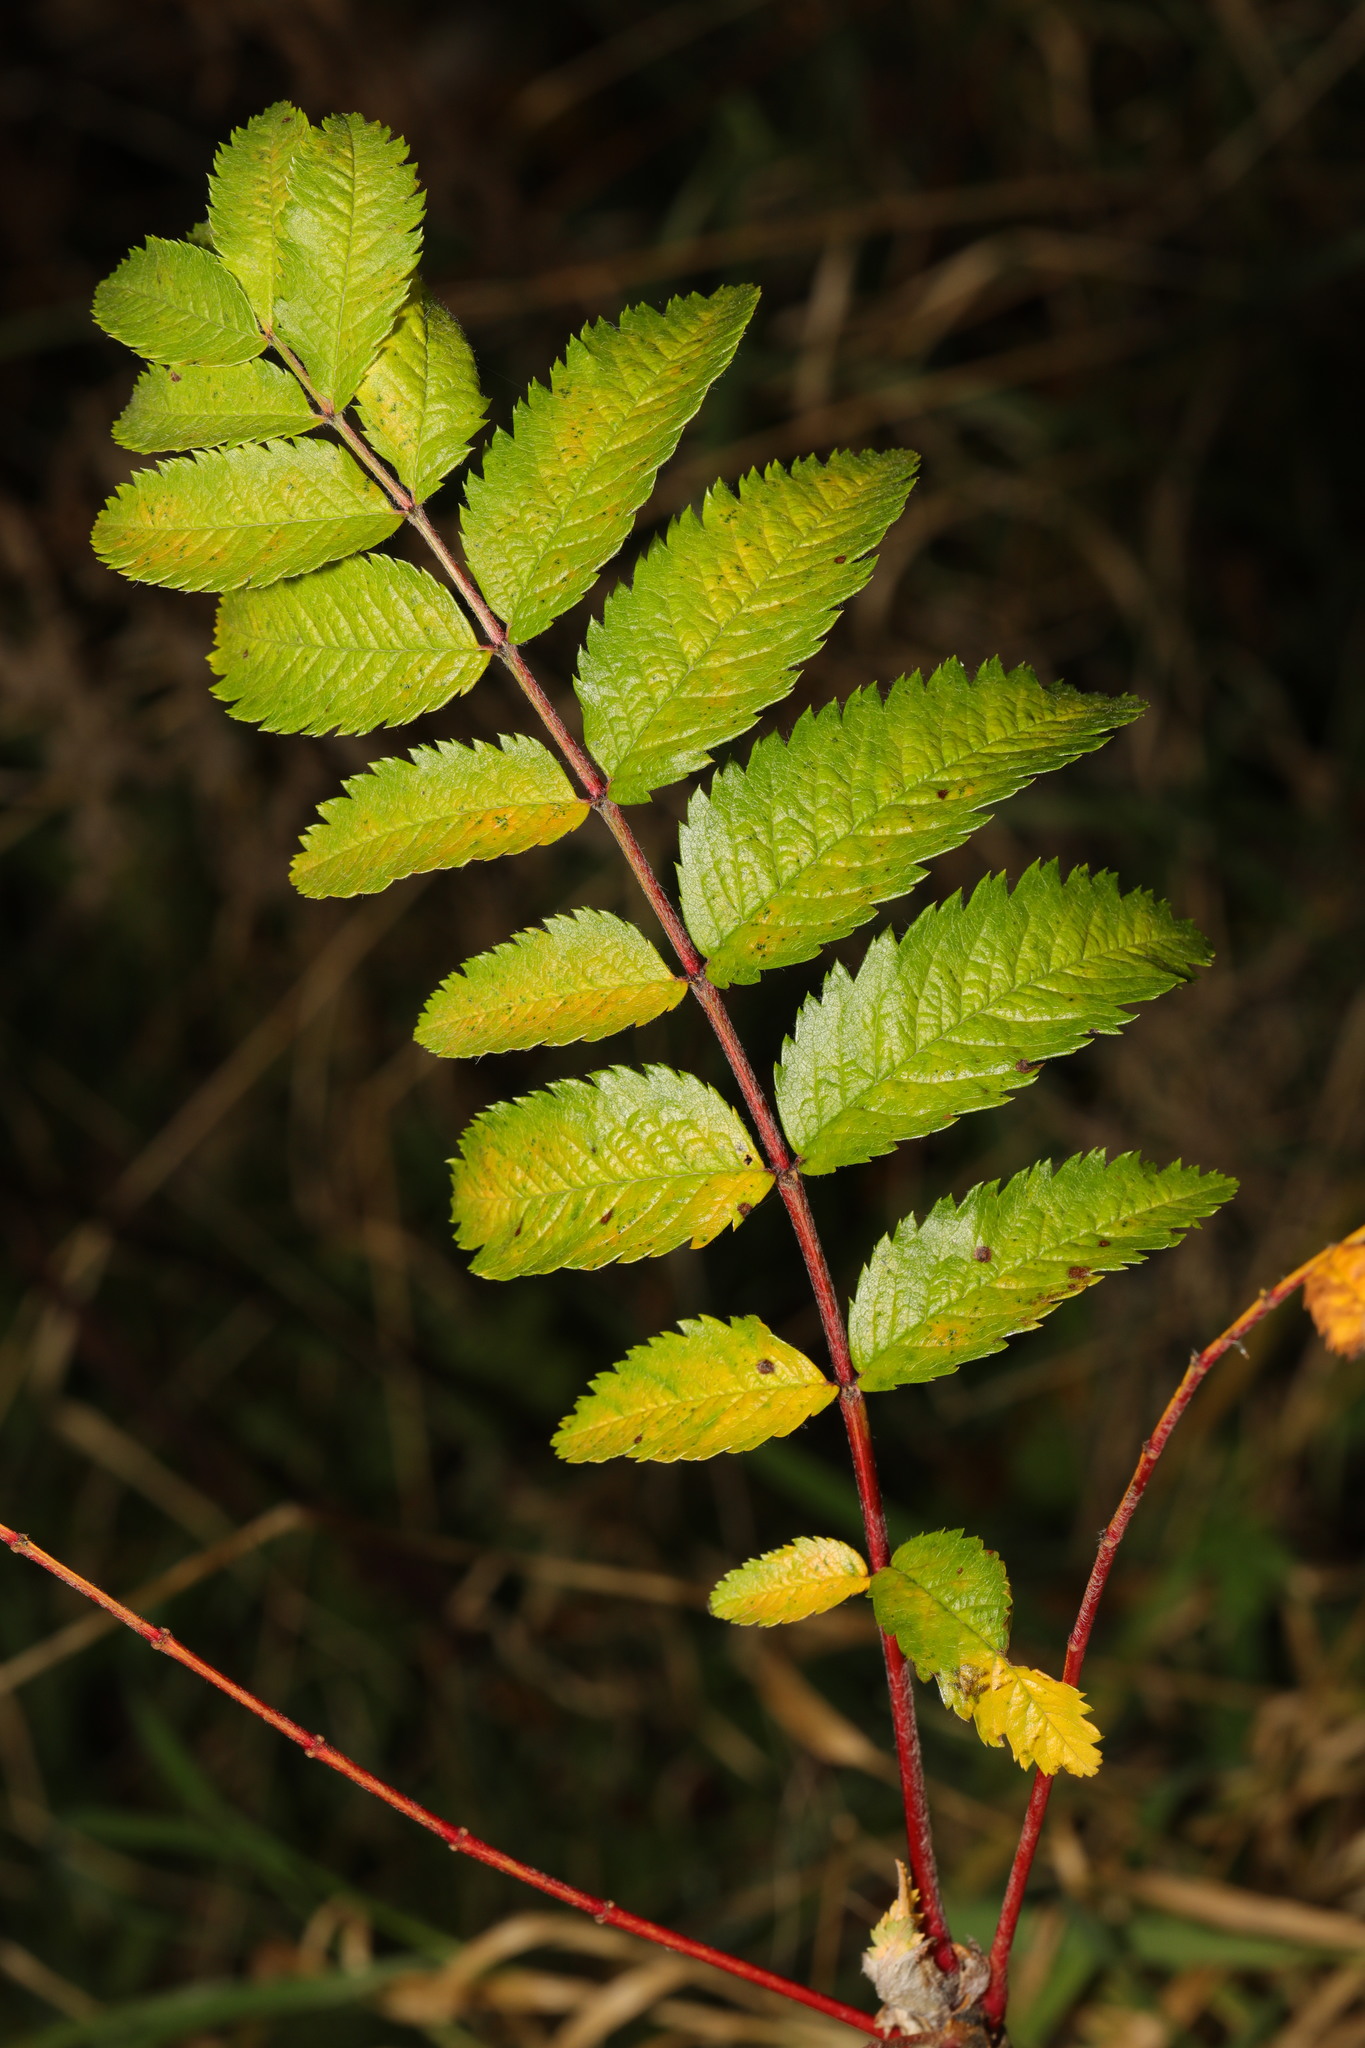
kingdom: Plantae
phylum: Tracheophyta
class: Magnoliopsida
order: Rosales
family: Rosaceae
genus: Sorbus
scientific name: Sorbus aucuparia
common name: Rowan
